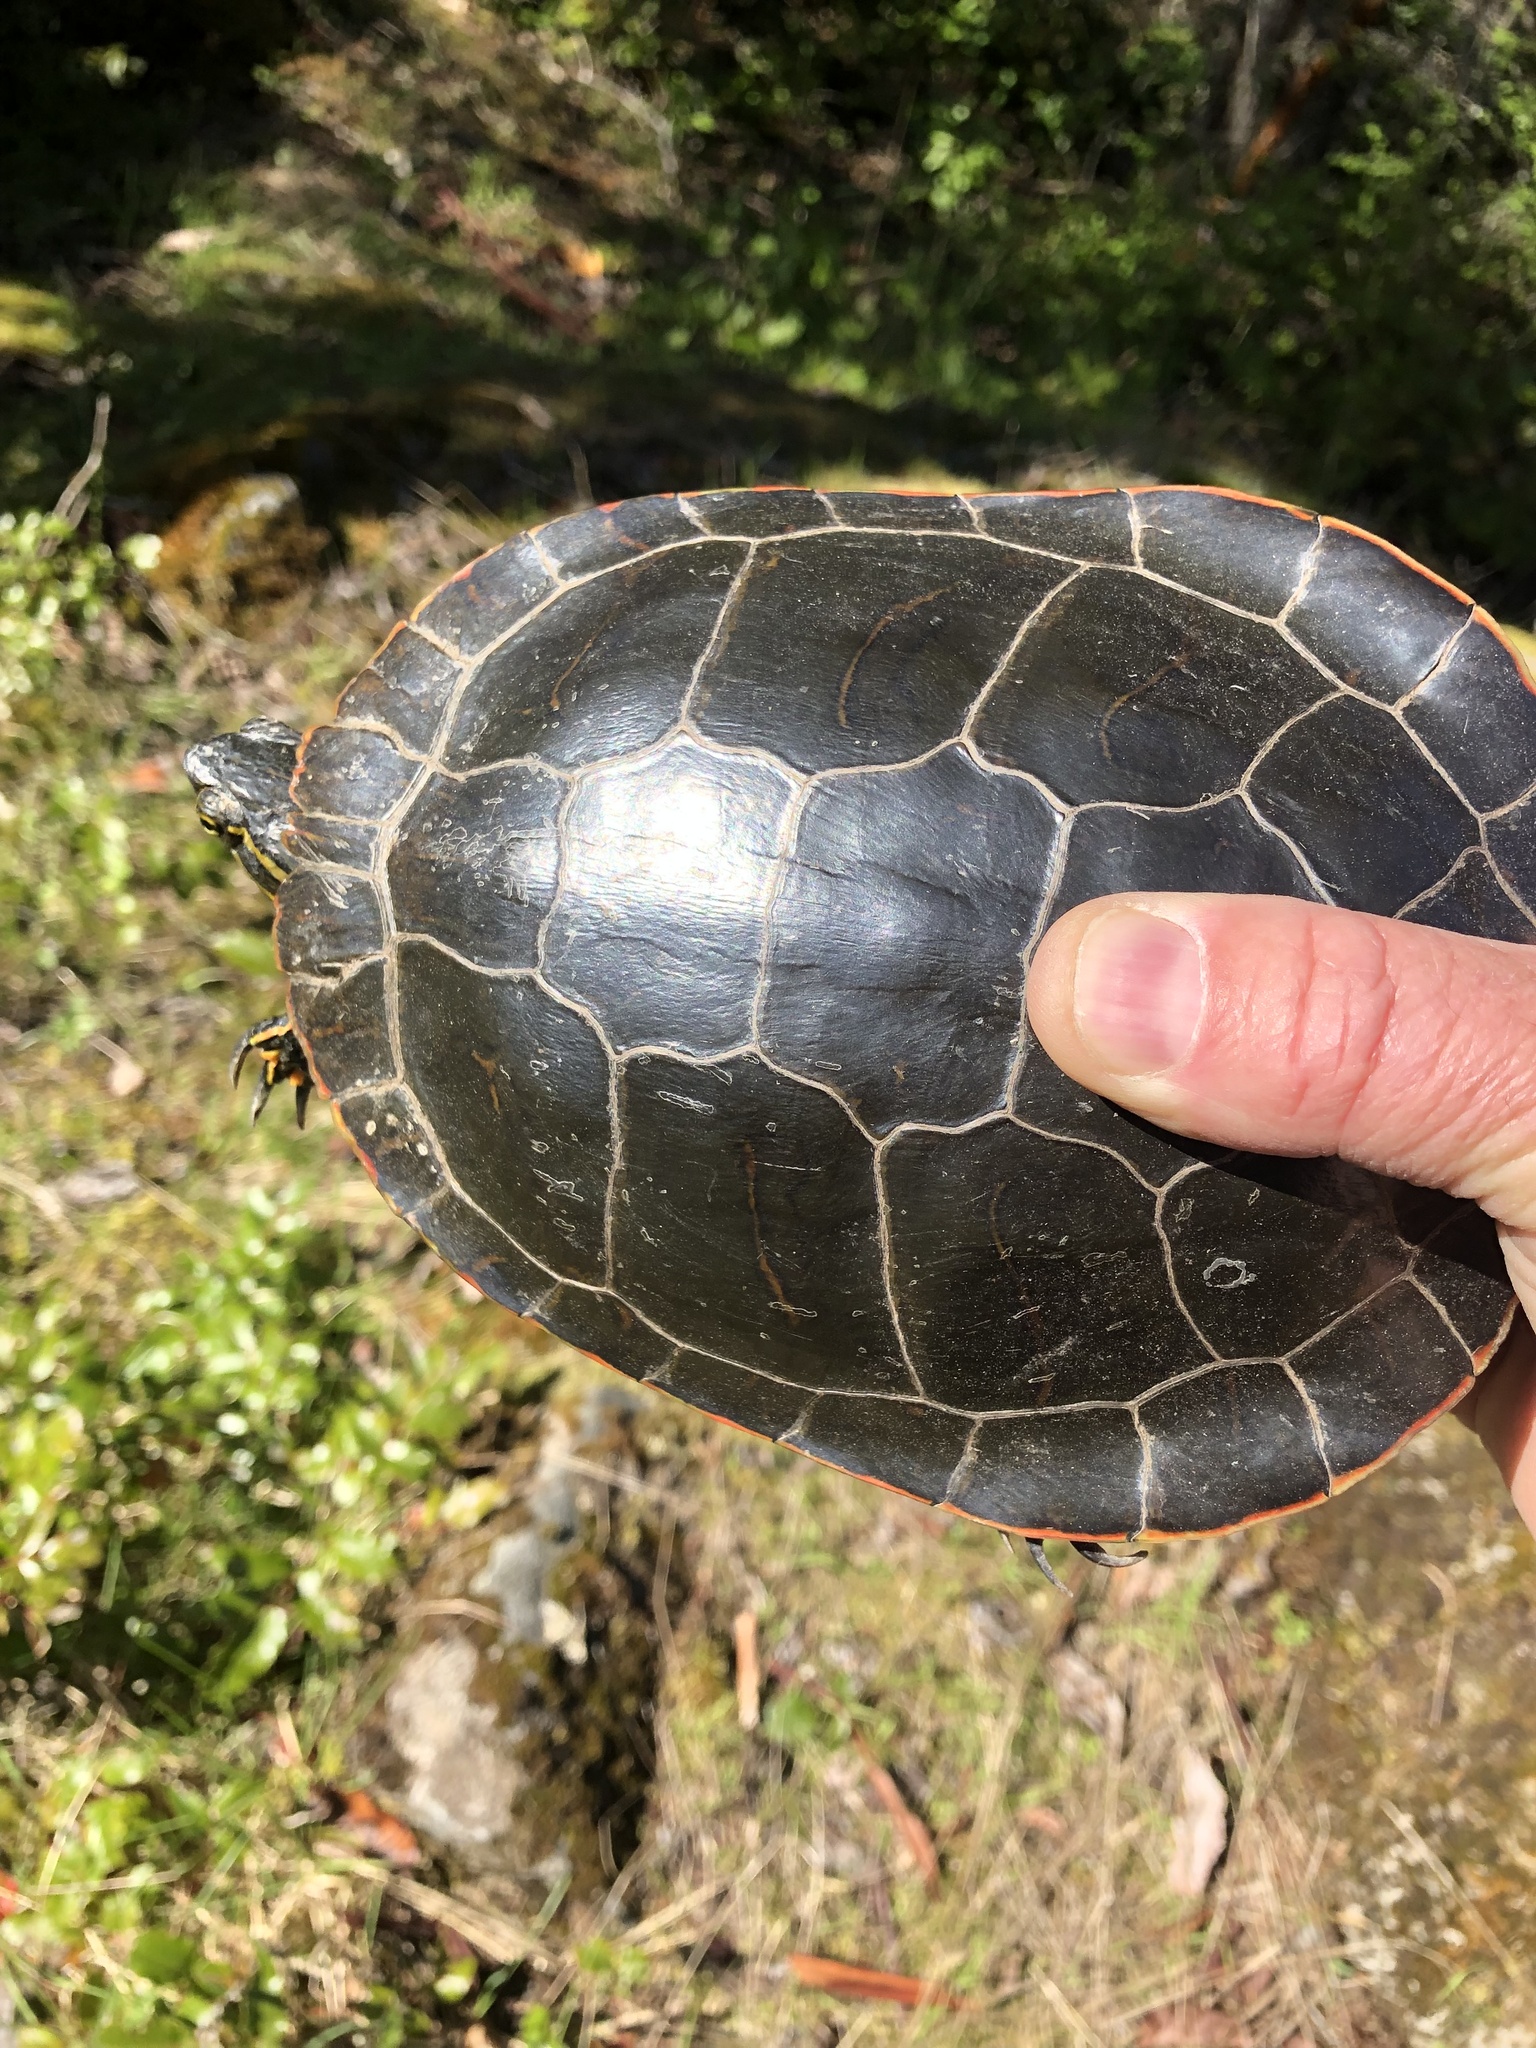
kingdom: Animalia
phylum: Chordata
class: Testudines
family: Emydidae
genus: Chrysemys
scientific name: Chrysemys picta
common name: Painted turtle
